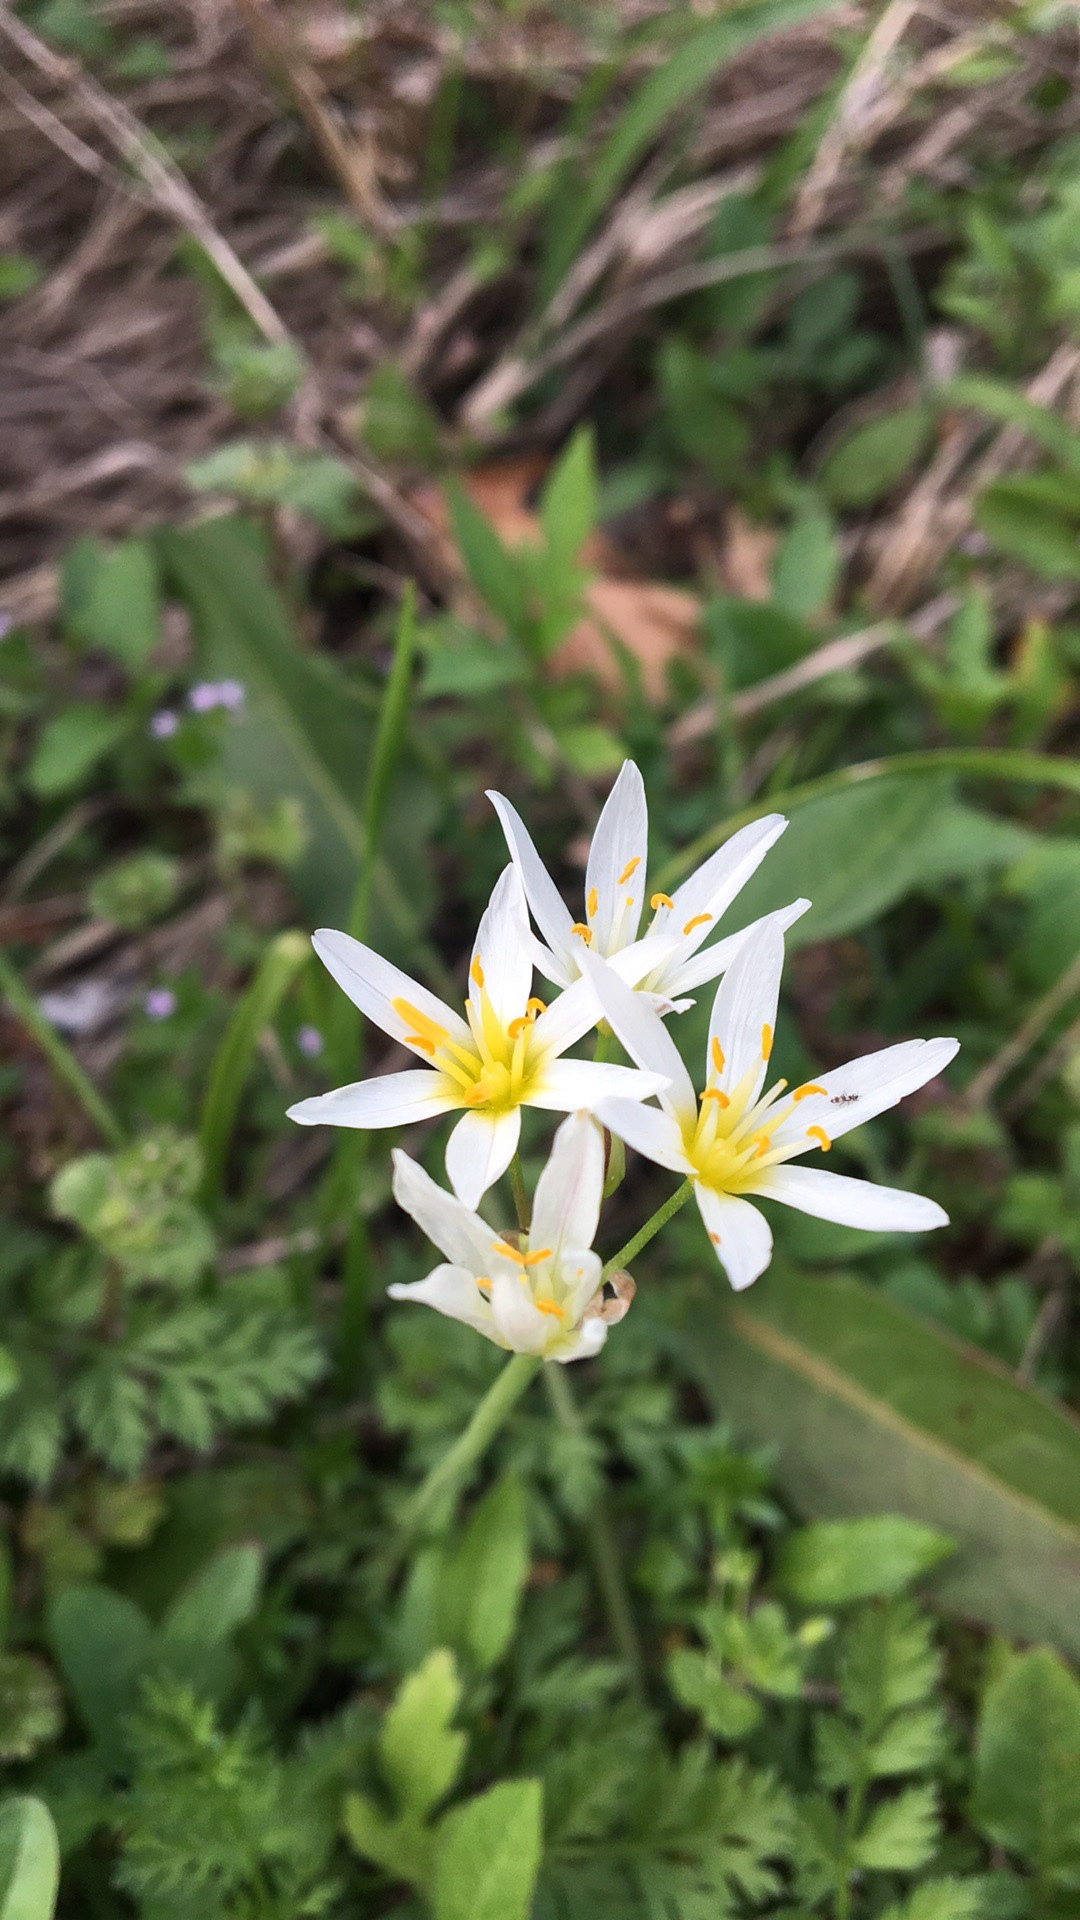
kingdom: Plantae
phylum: Tracheophyta
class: Liliopsida
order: Asparagales
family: Amaryllidaceae
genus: Nothoscordum
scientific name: Nothoscordum bivalve
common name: Crow-poison
